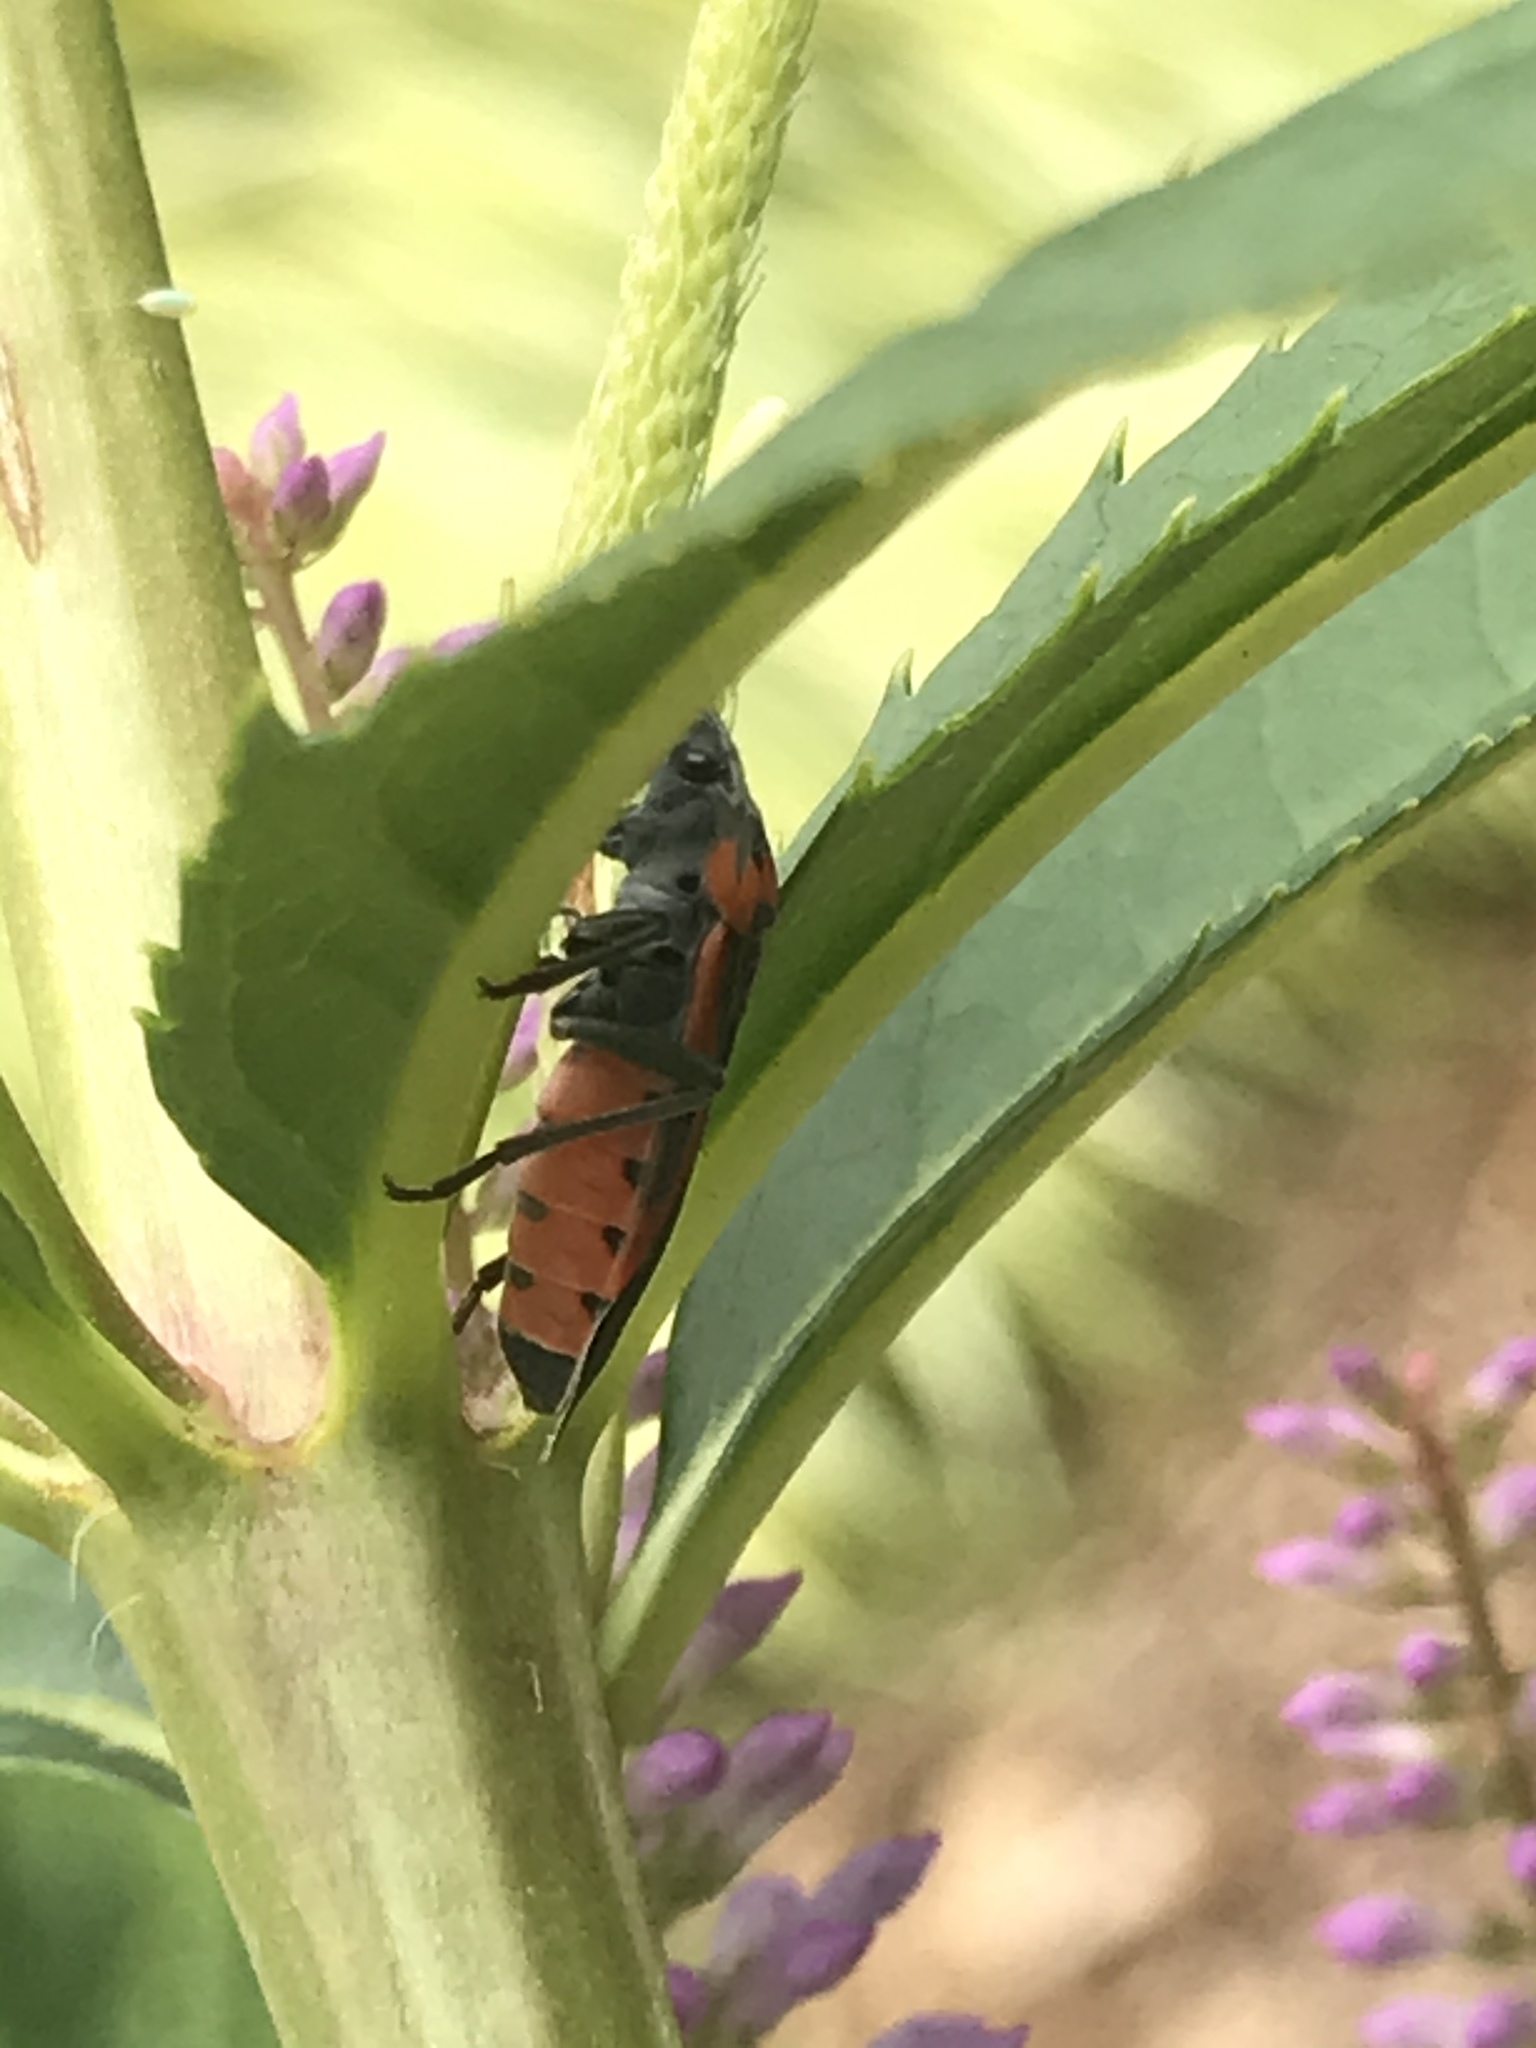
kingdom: Animalia
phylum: Arthropoda
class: Insecta
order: Hemiptera
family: Lygaeidae
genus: Lygaeus
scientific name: Lygaeus kalmii
